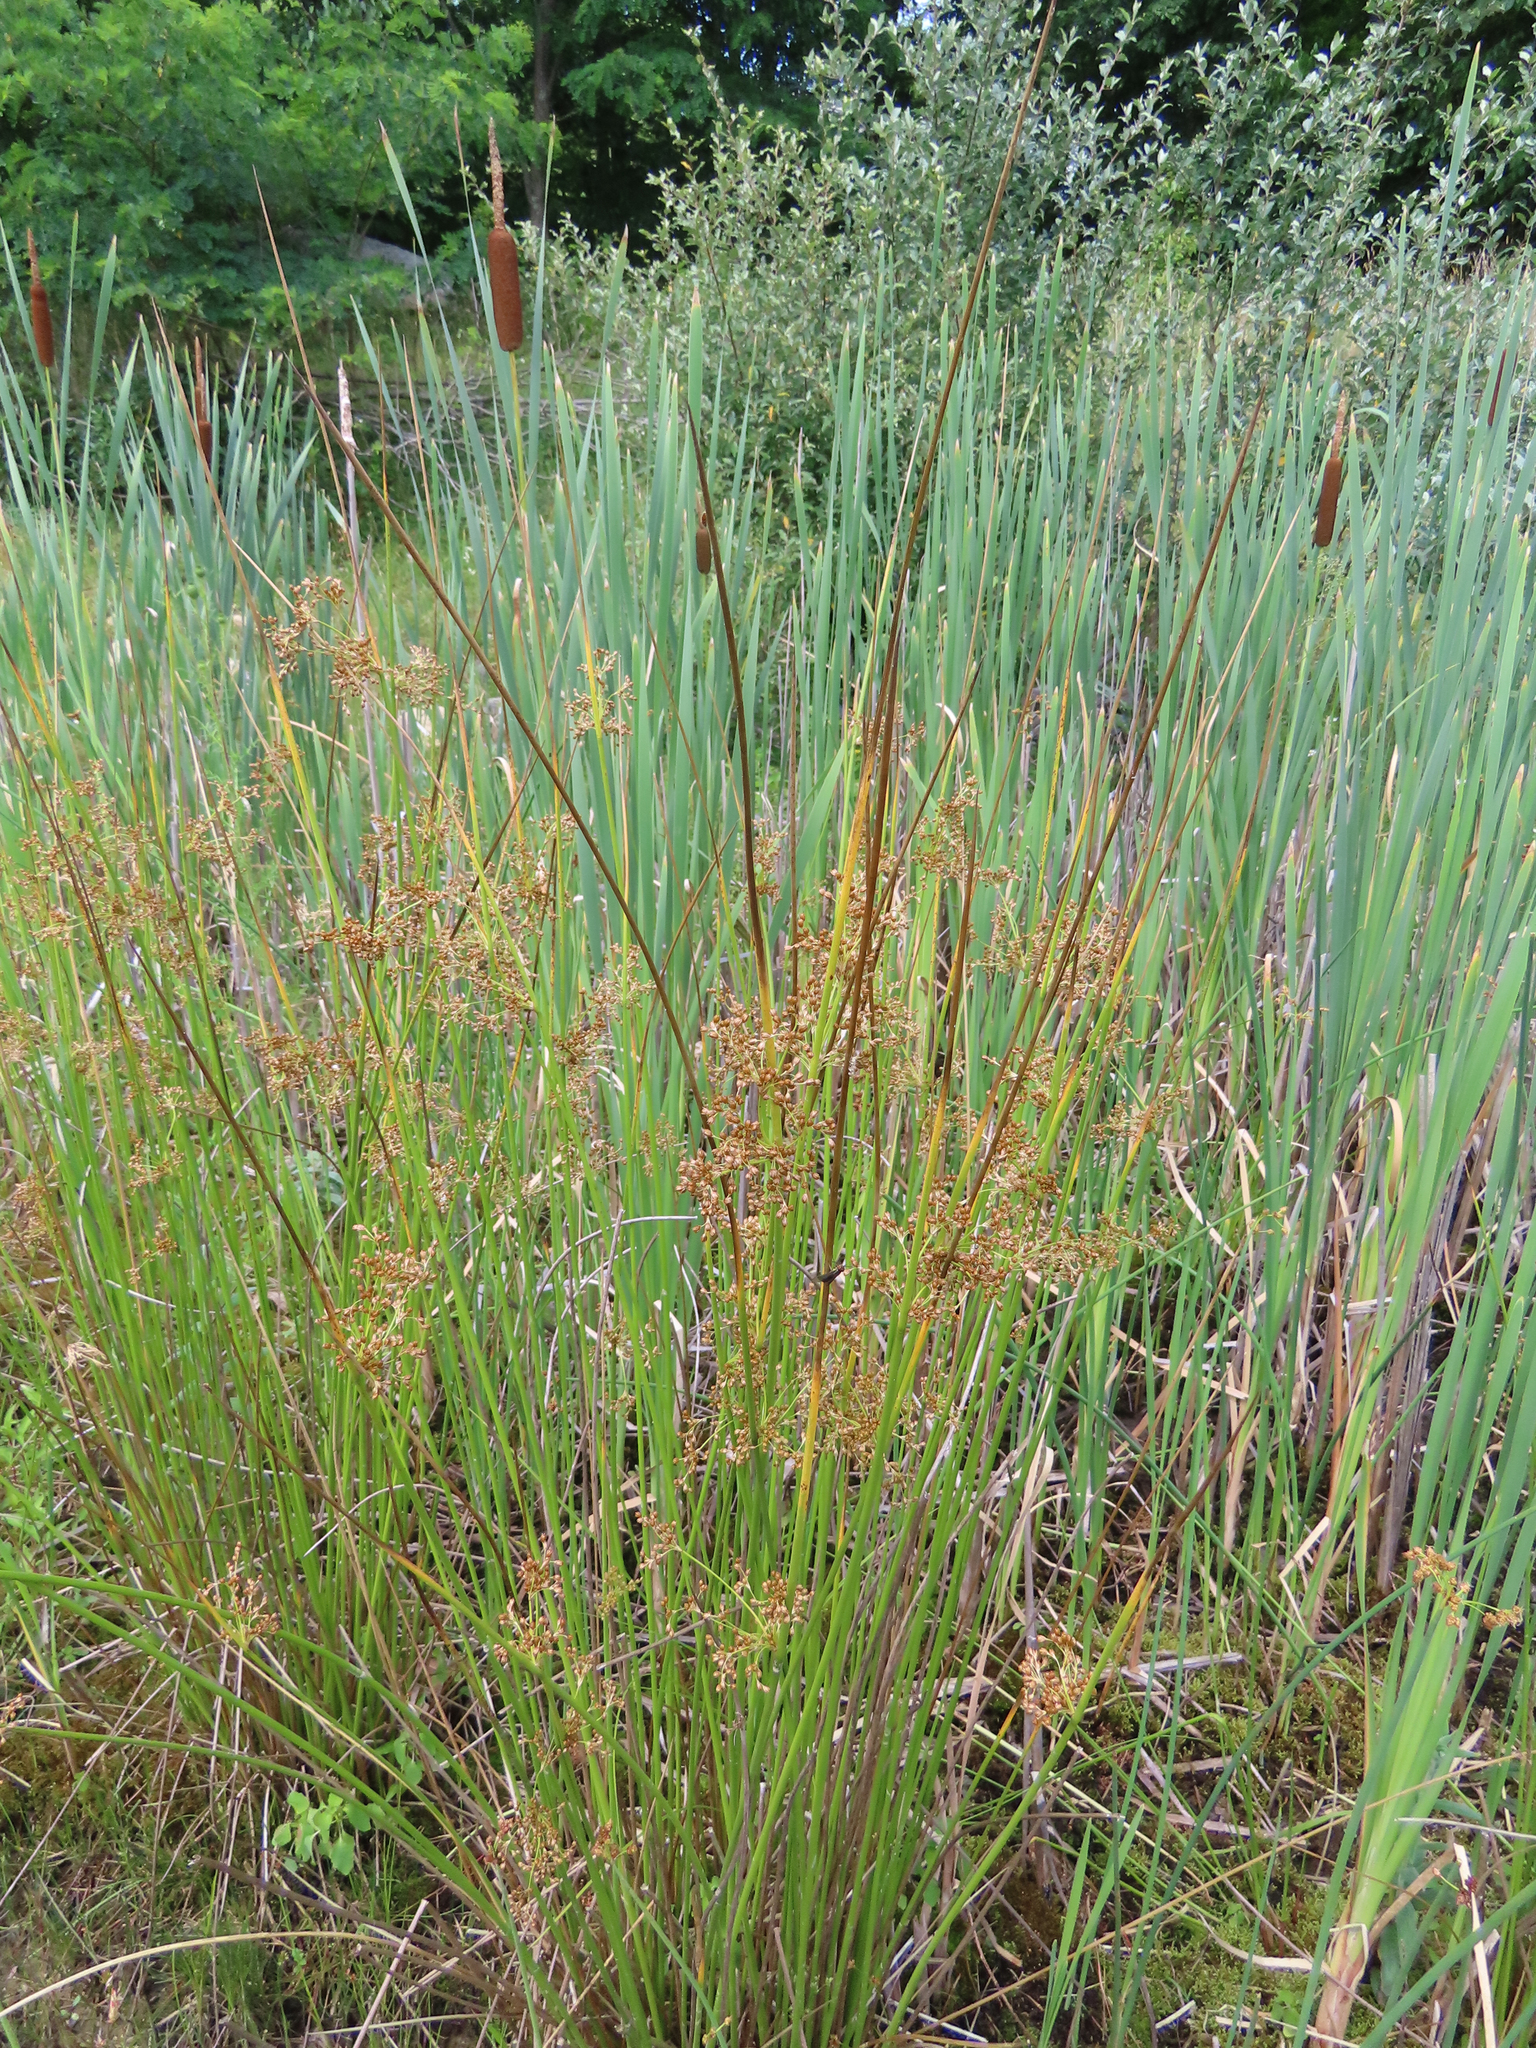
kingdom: Plantae
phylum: Tracheophyta
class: Liliopsida
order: Poales
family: Cyperaceae
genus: Schoenoplectus
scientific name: Schoenoplectus tabernaemontani
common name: Grey club-rush
